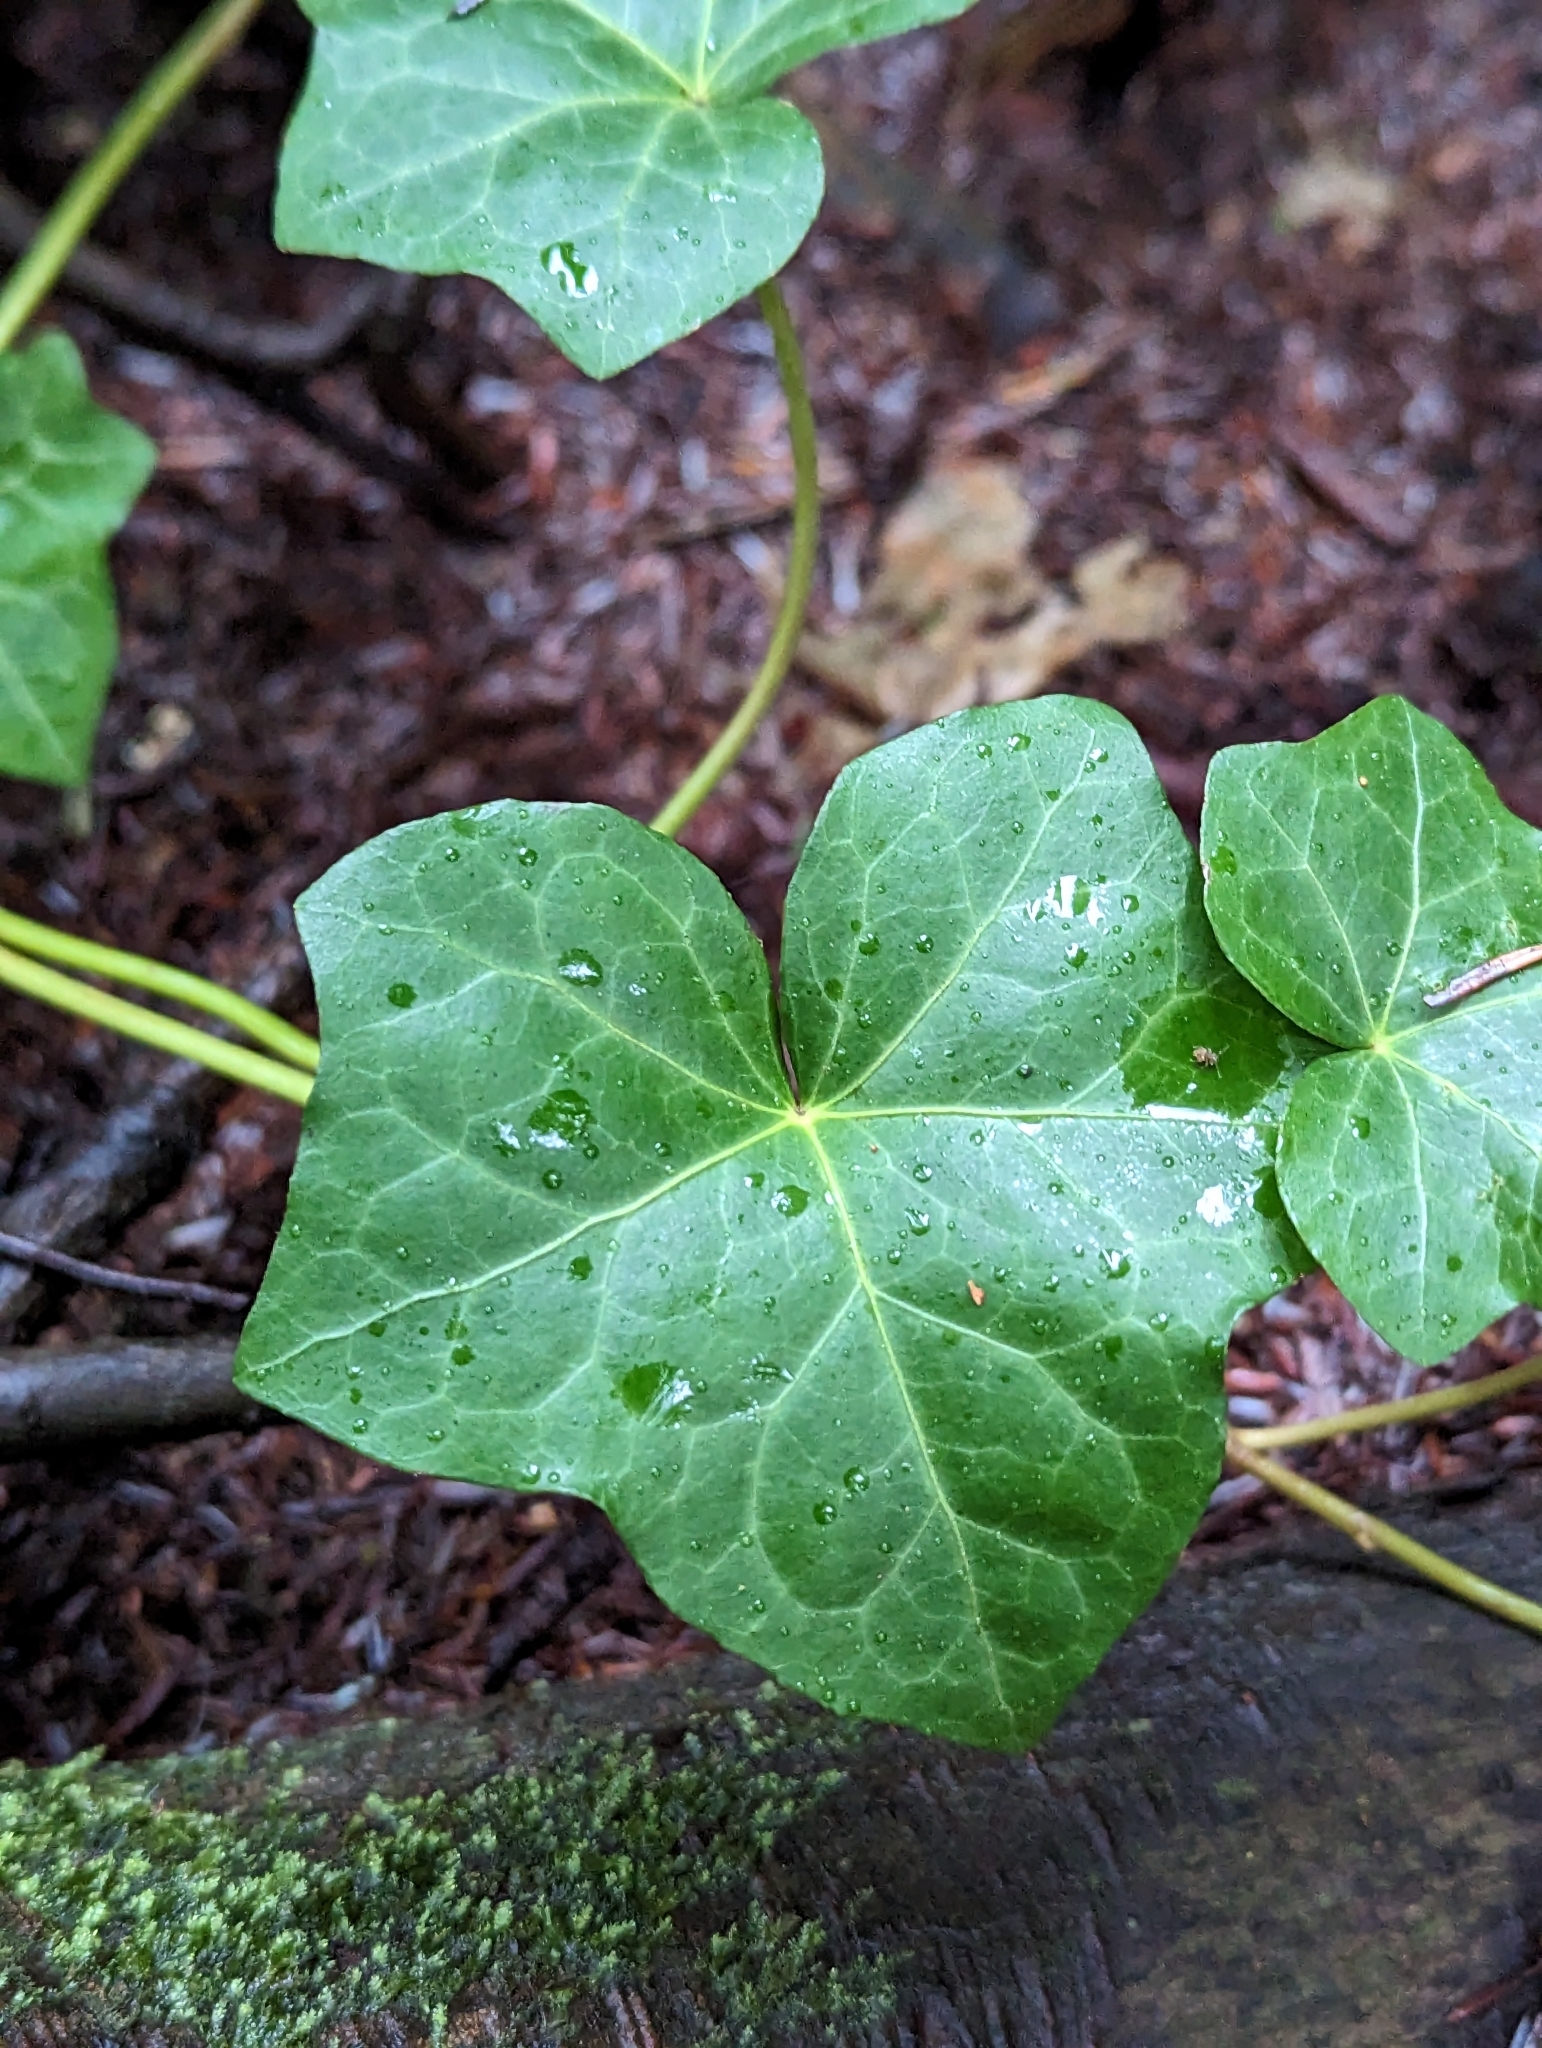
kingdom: Plantae
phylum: Tracheophyta
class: Magnoliopsida
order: Apiales
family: Araliaceae
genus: Hedera
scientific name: Hedera helix
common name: Ivy
